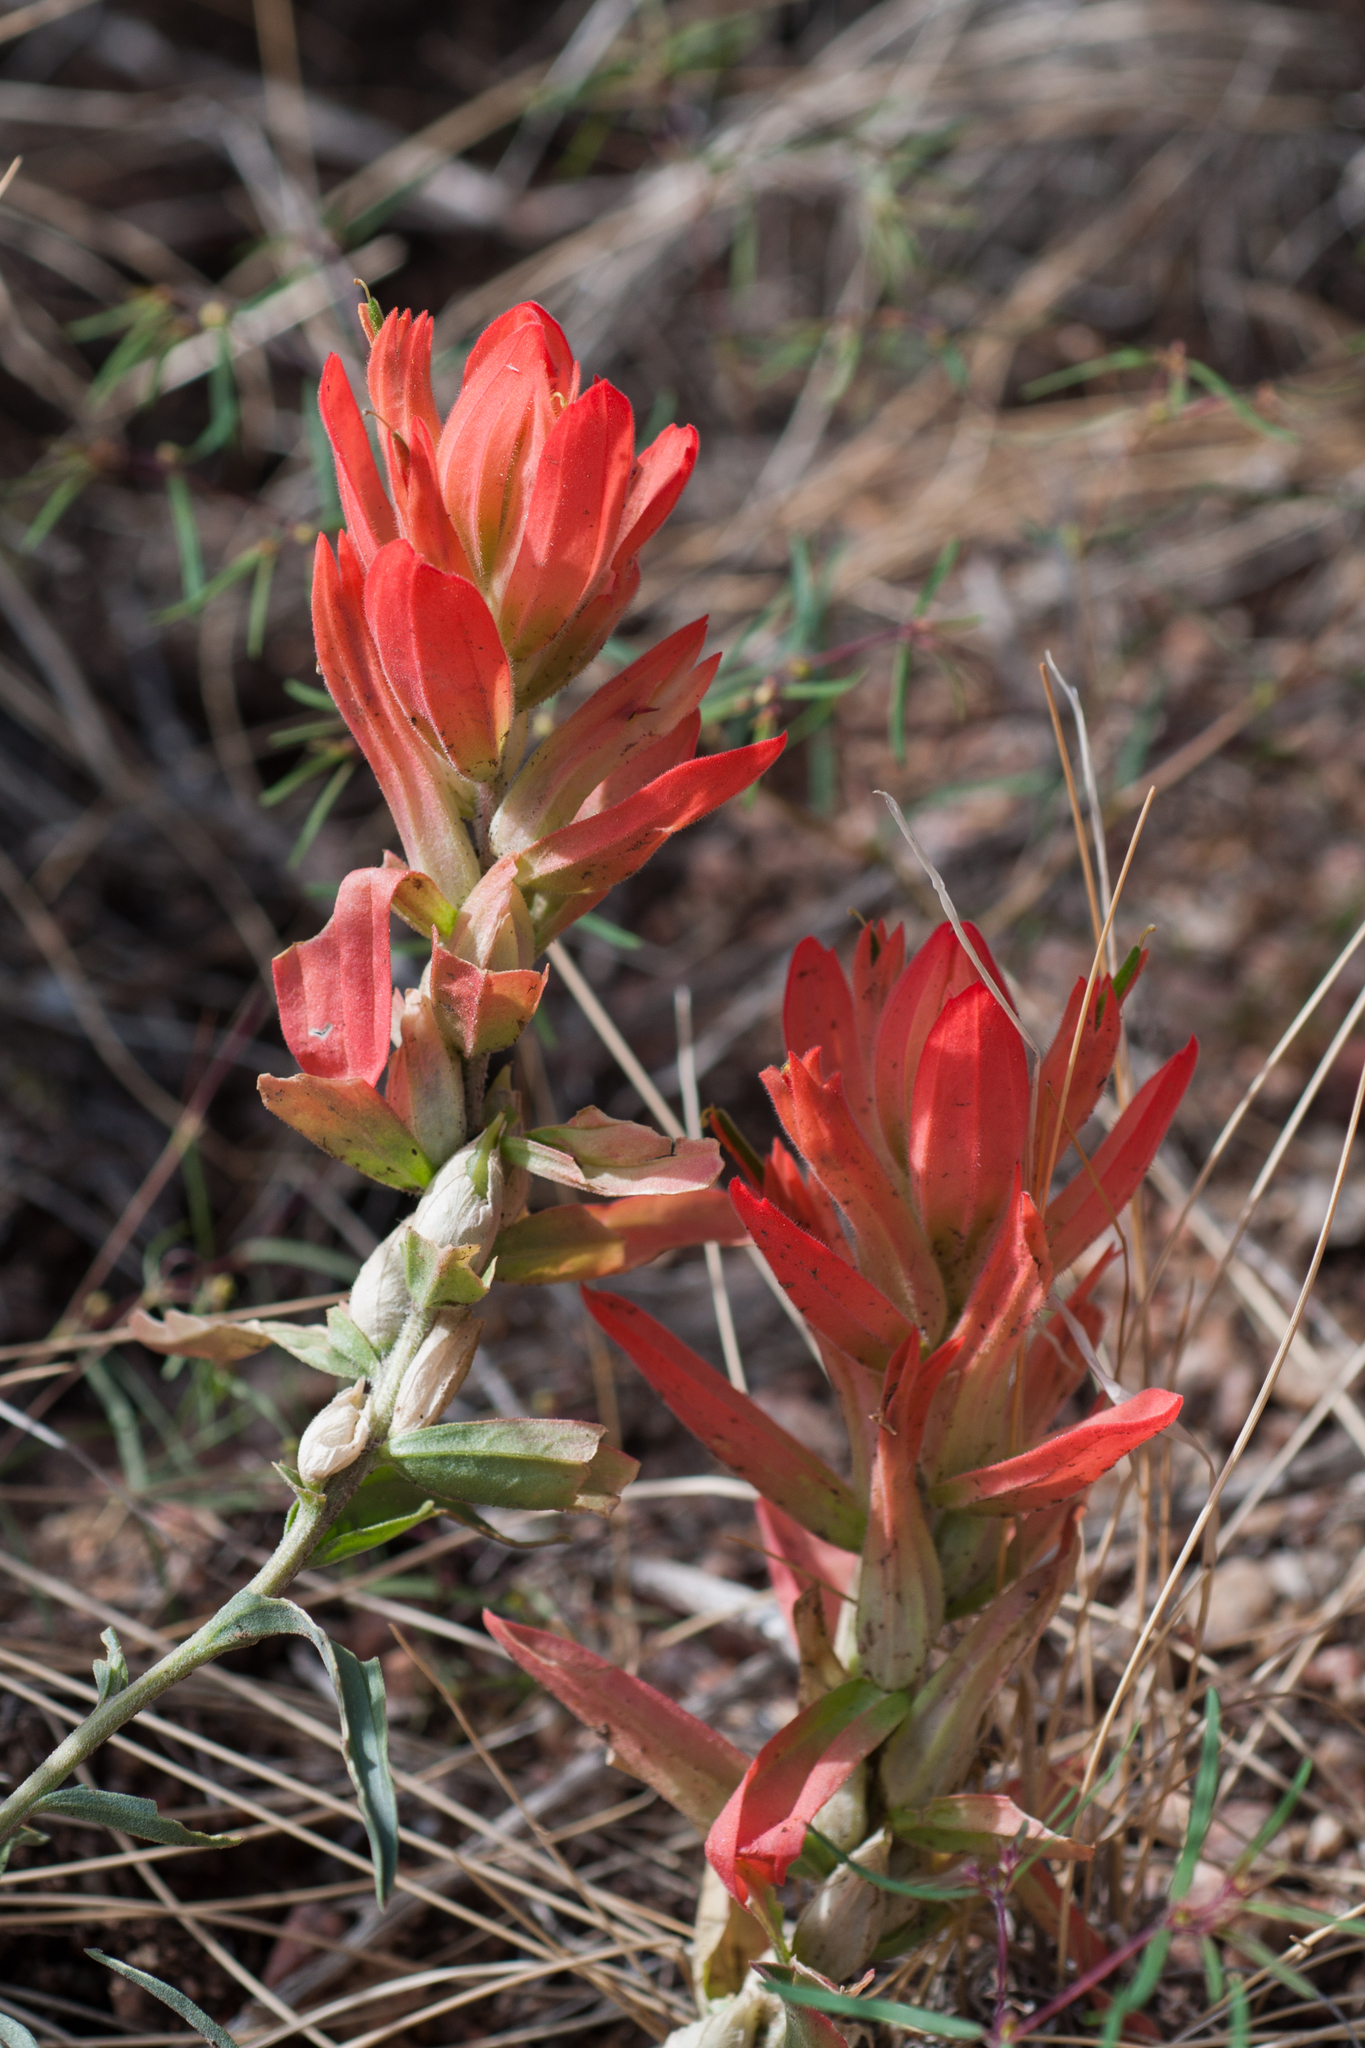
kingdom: Plantae
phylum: Tracheophyta
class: Magnoliopsida
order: Lamiales
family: Orobanchaceae
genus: Castilleja
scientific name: Castilleja integra
